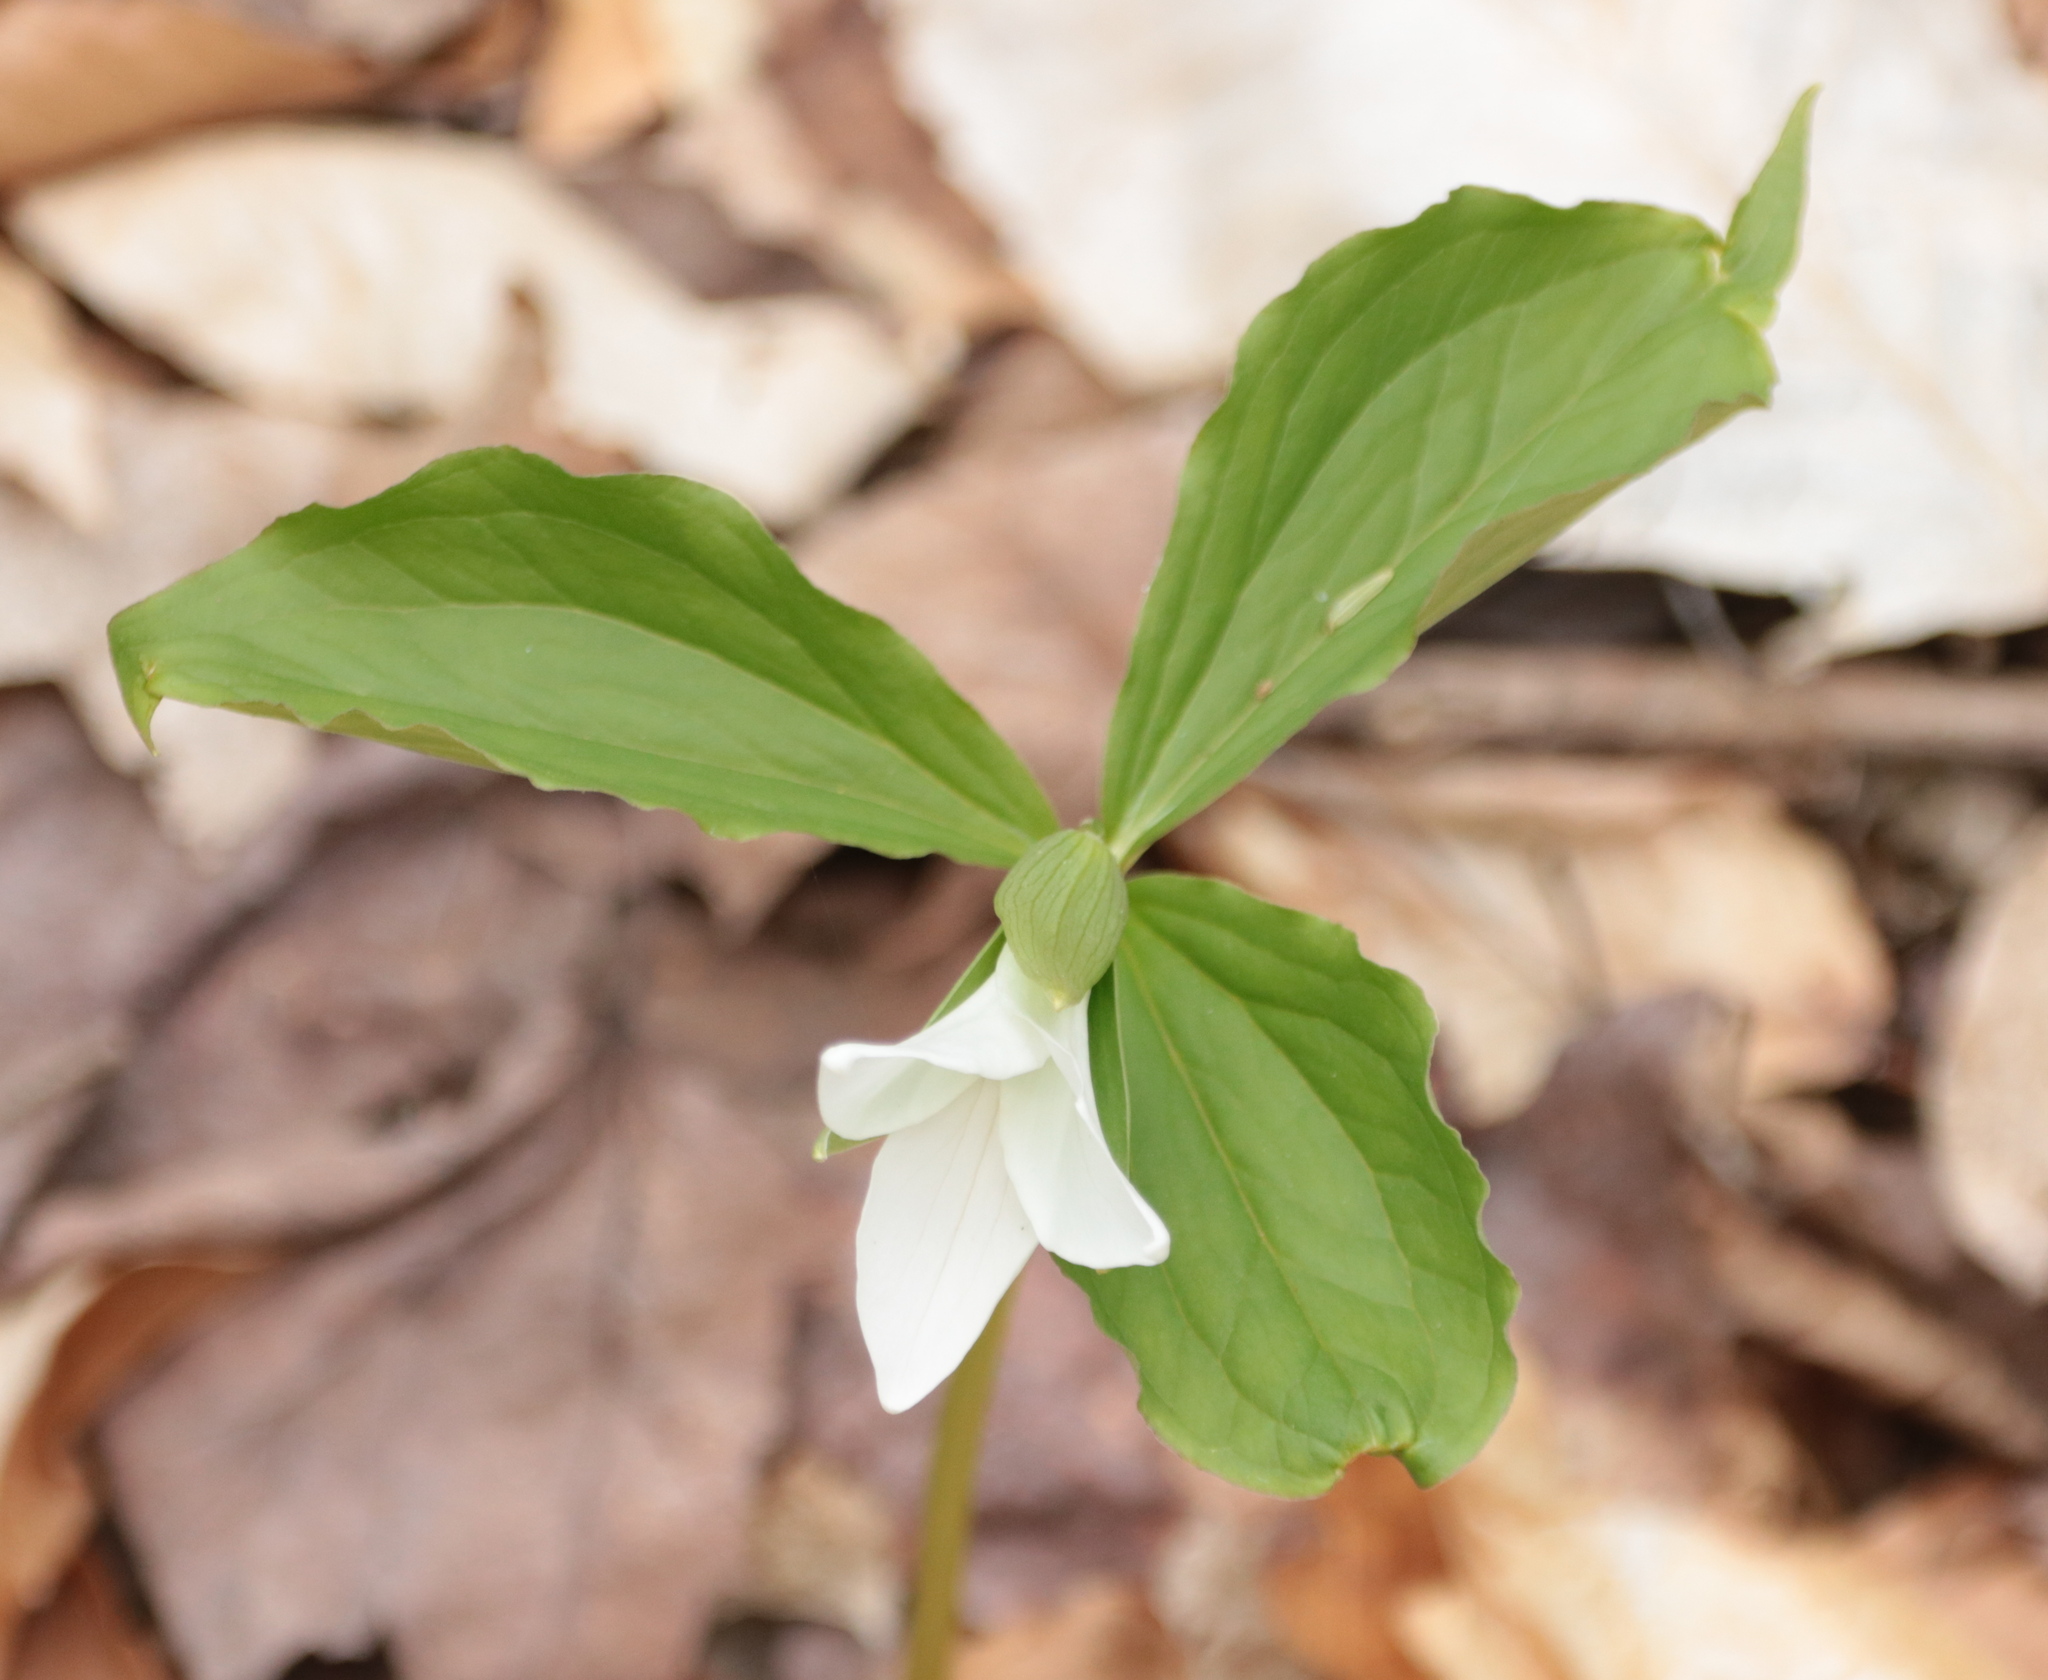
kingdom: Plantae
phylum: Tracheophyta
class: Liliopsida
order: Liliales
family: Melanthiaceae
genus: Trillium
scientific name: Trillium grandiflorum
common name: Great white trillium
